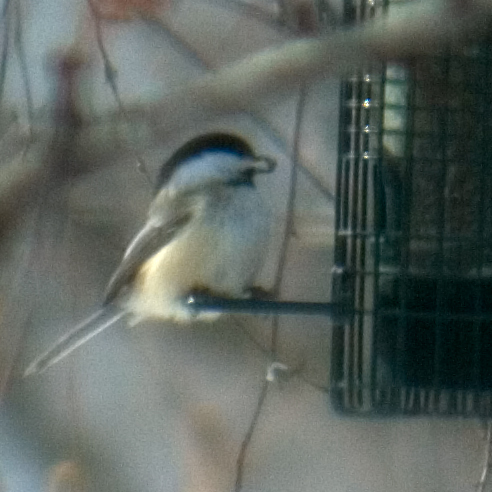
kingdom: Animalia
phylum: Chordata
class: Aves
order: Passeriformes
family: Paridae
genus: Poecile
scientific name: Poecile atricapillus
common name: Black-capped chickadee
